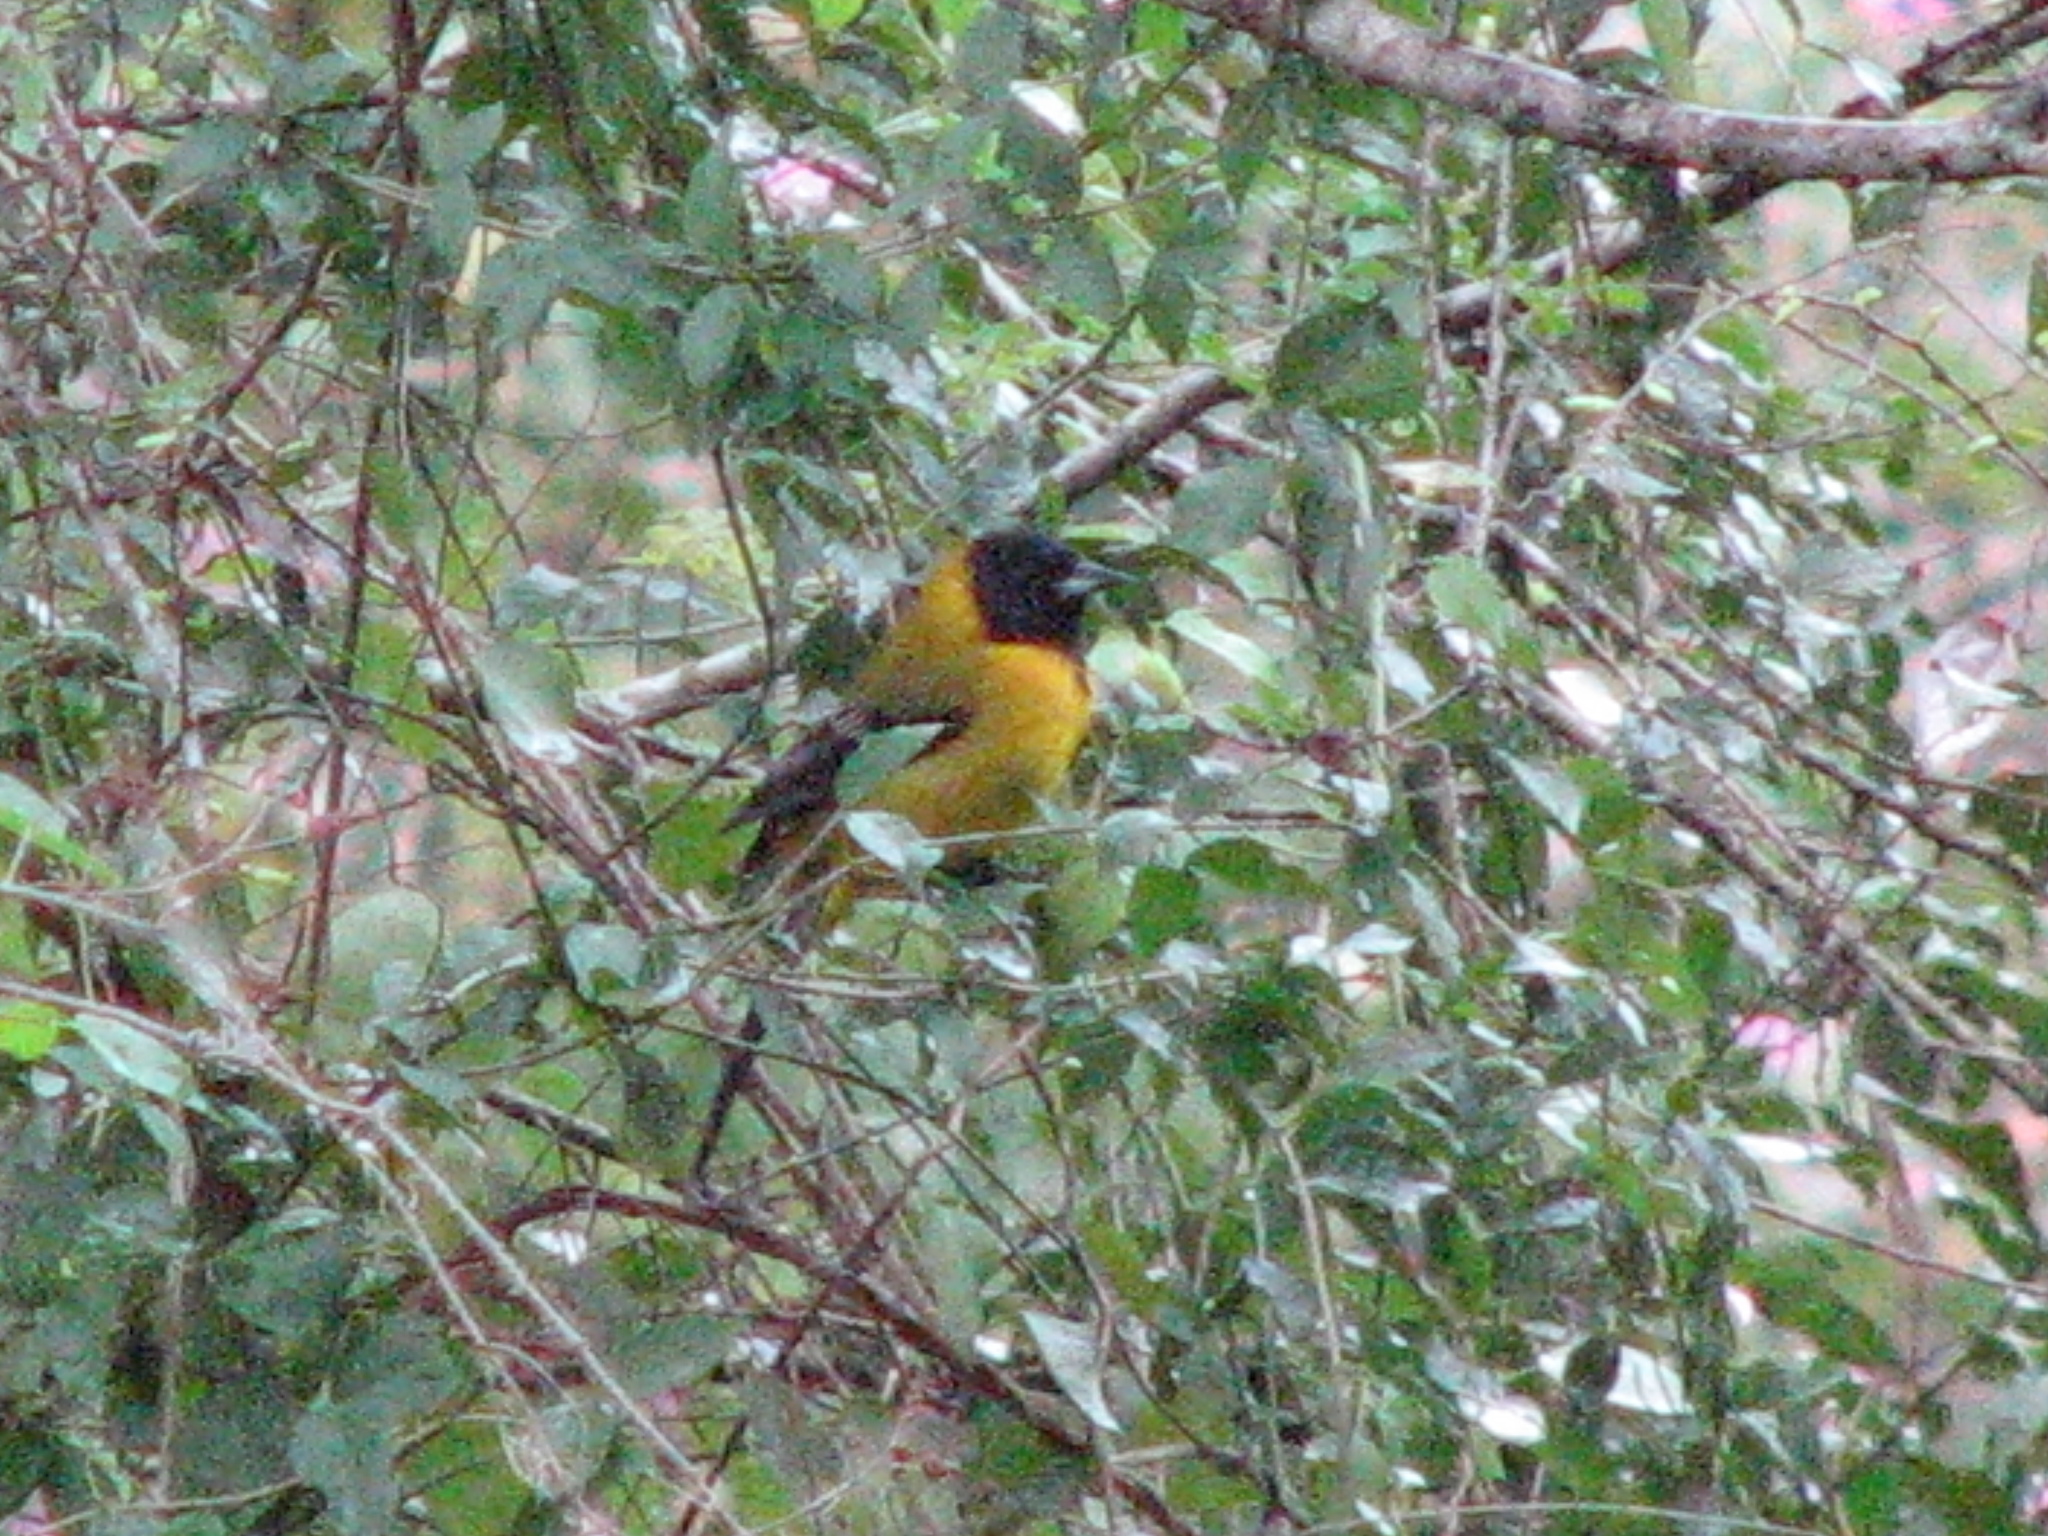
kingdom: Animalia
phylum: Chordata
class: Aves
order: Passeriformes
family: Icteridae
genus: Icterus
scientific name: Icterus graduacauda
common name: Audubon's oriole
